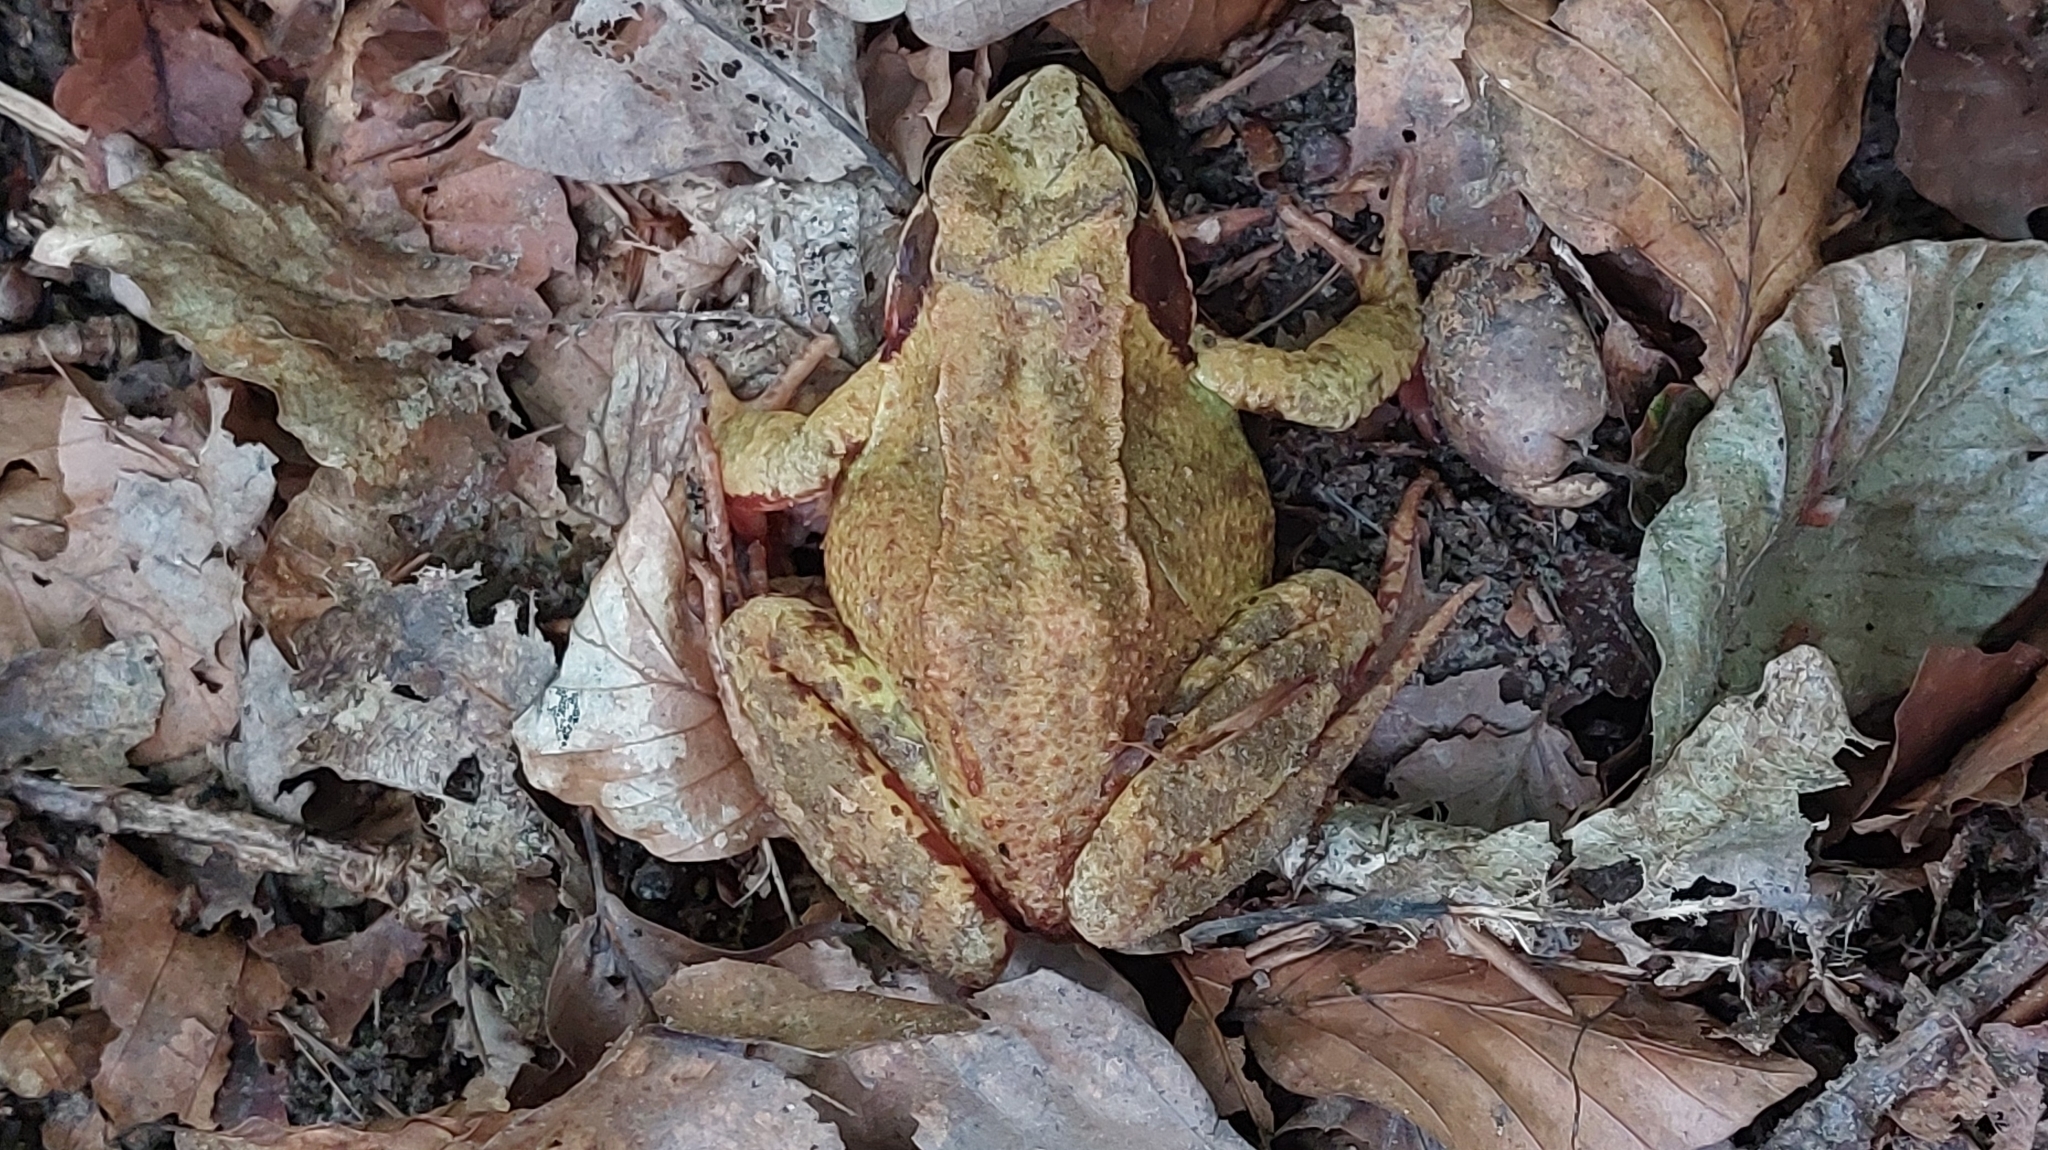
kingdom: Animalia
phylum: Chordata
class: Amphibia
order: Anura
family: Ranidae
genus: Rana
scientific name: Rana temporaria
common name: Common frog
